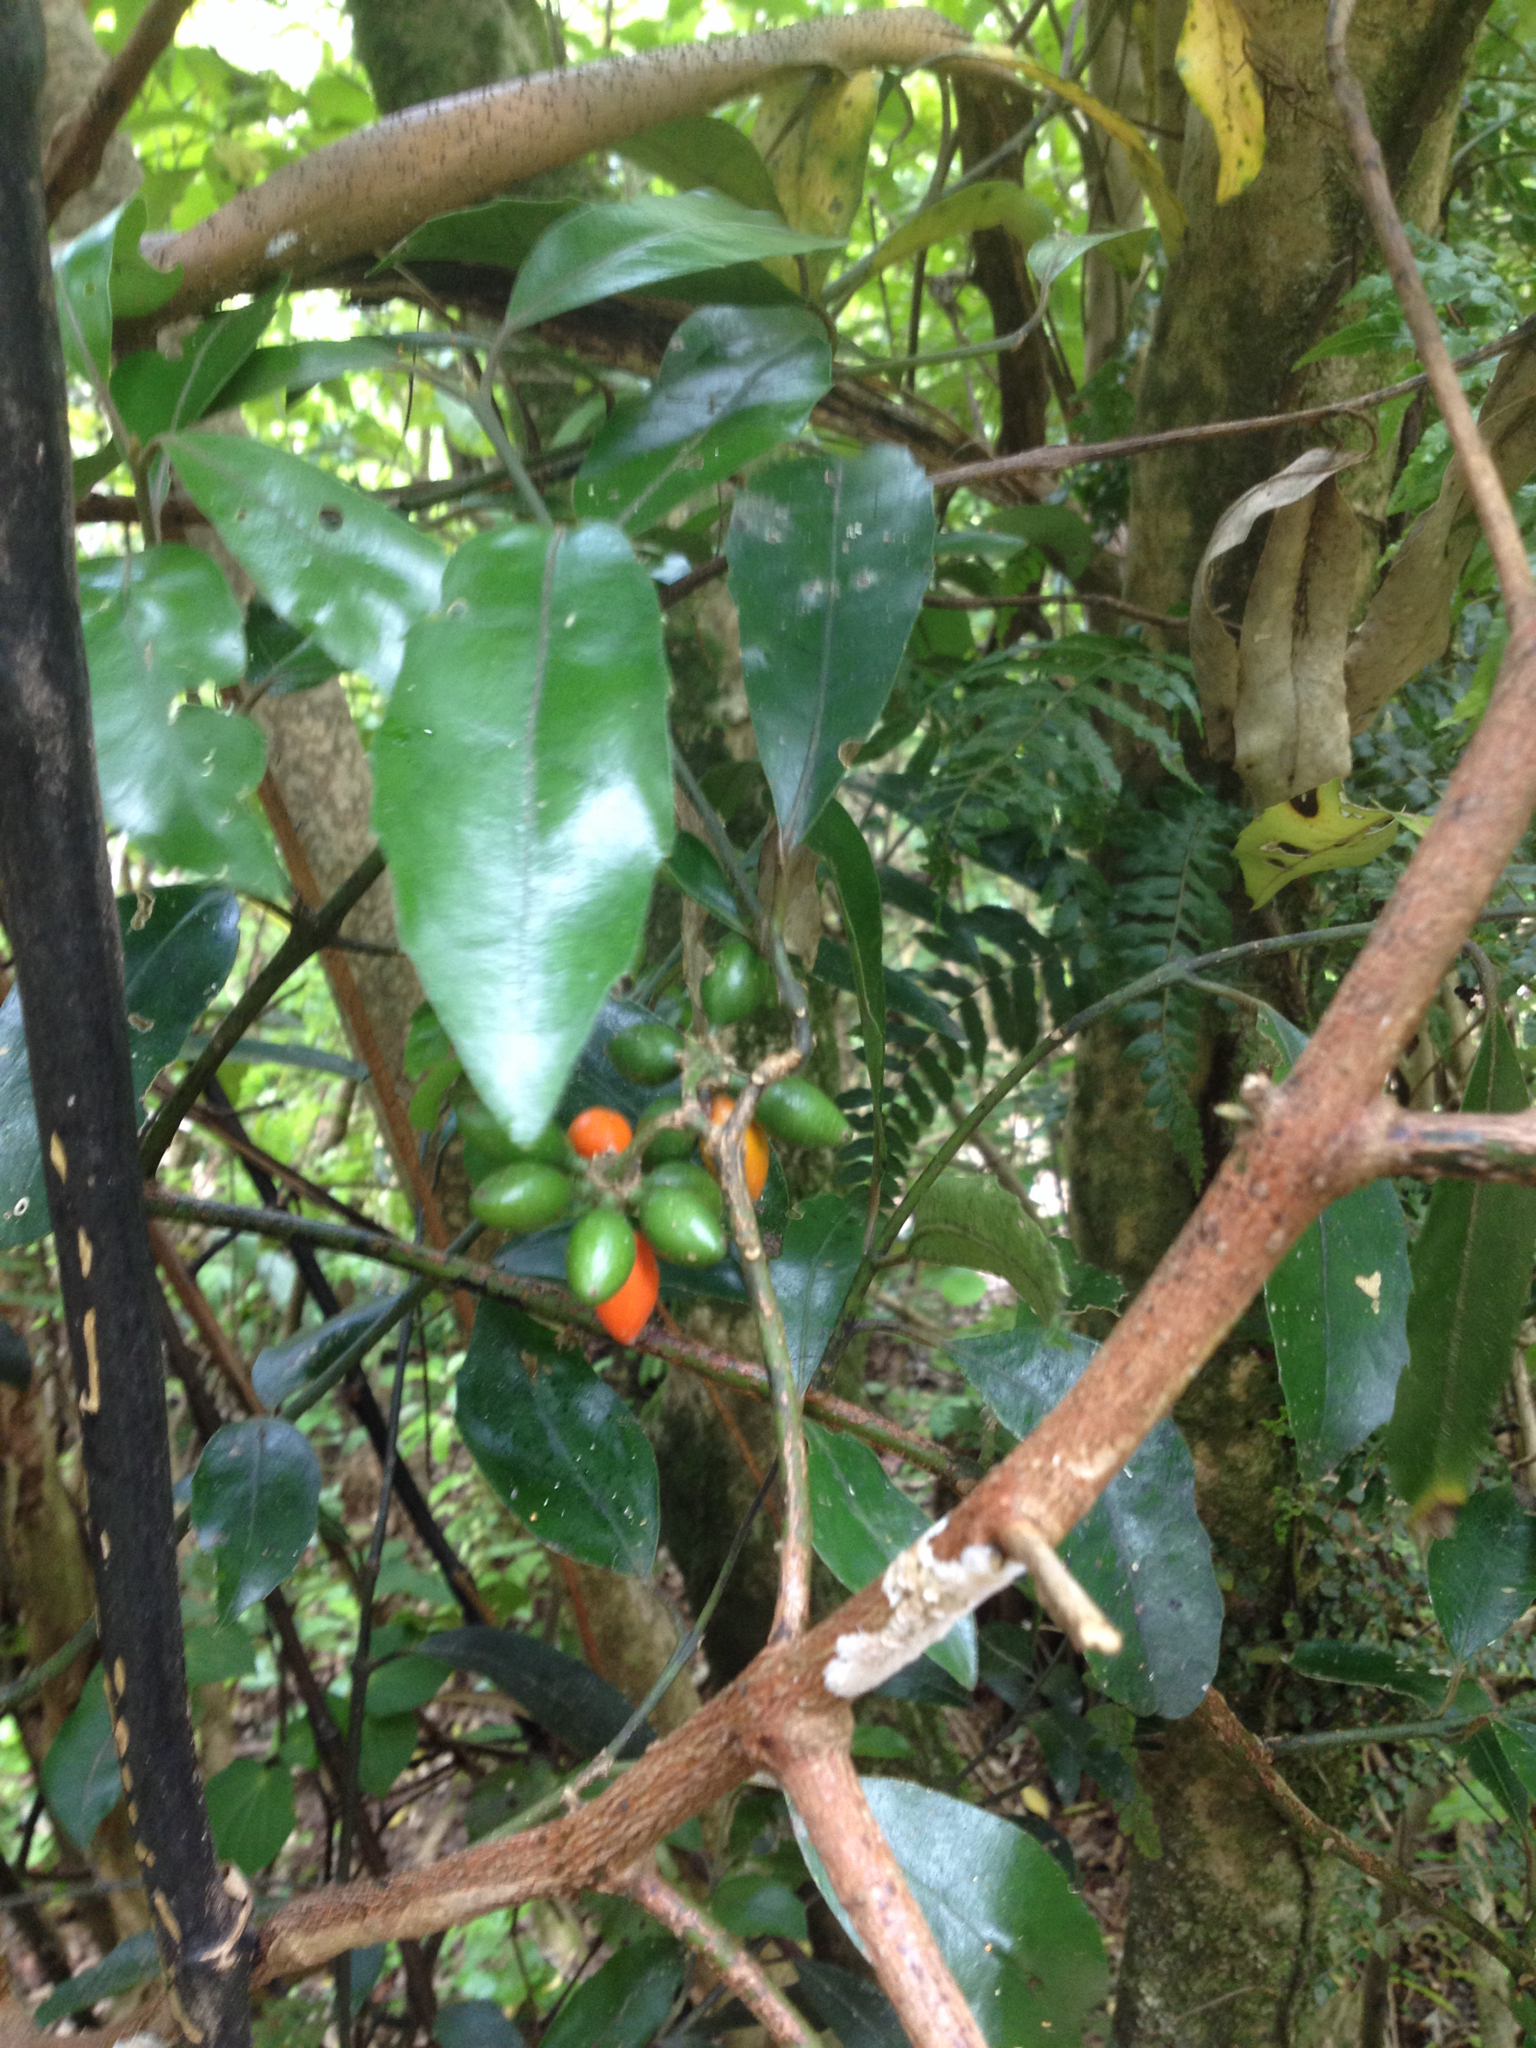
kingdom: Plantae
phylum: Tracheophyta
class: Magnoliopsida
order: Laurales
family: Monimiaceae
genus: Hedycarya
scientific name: Hedycarya arborea
